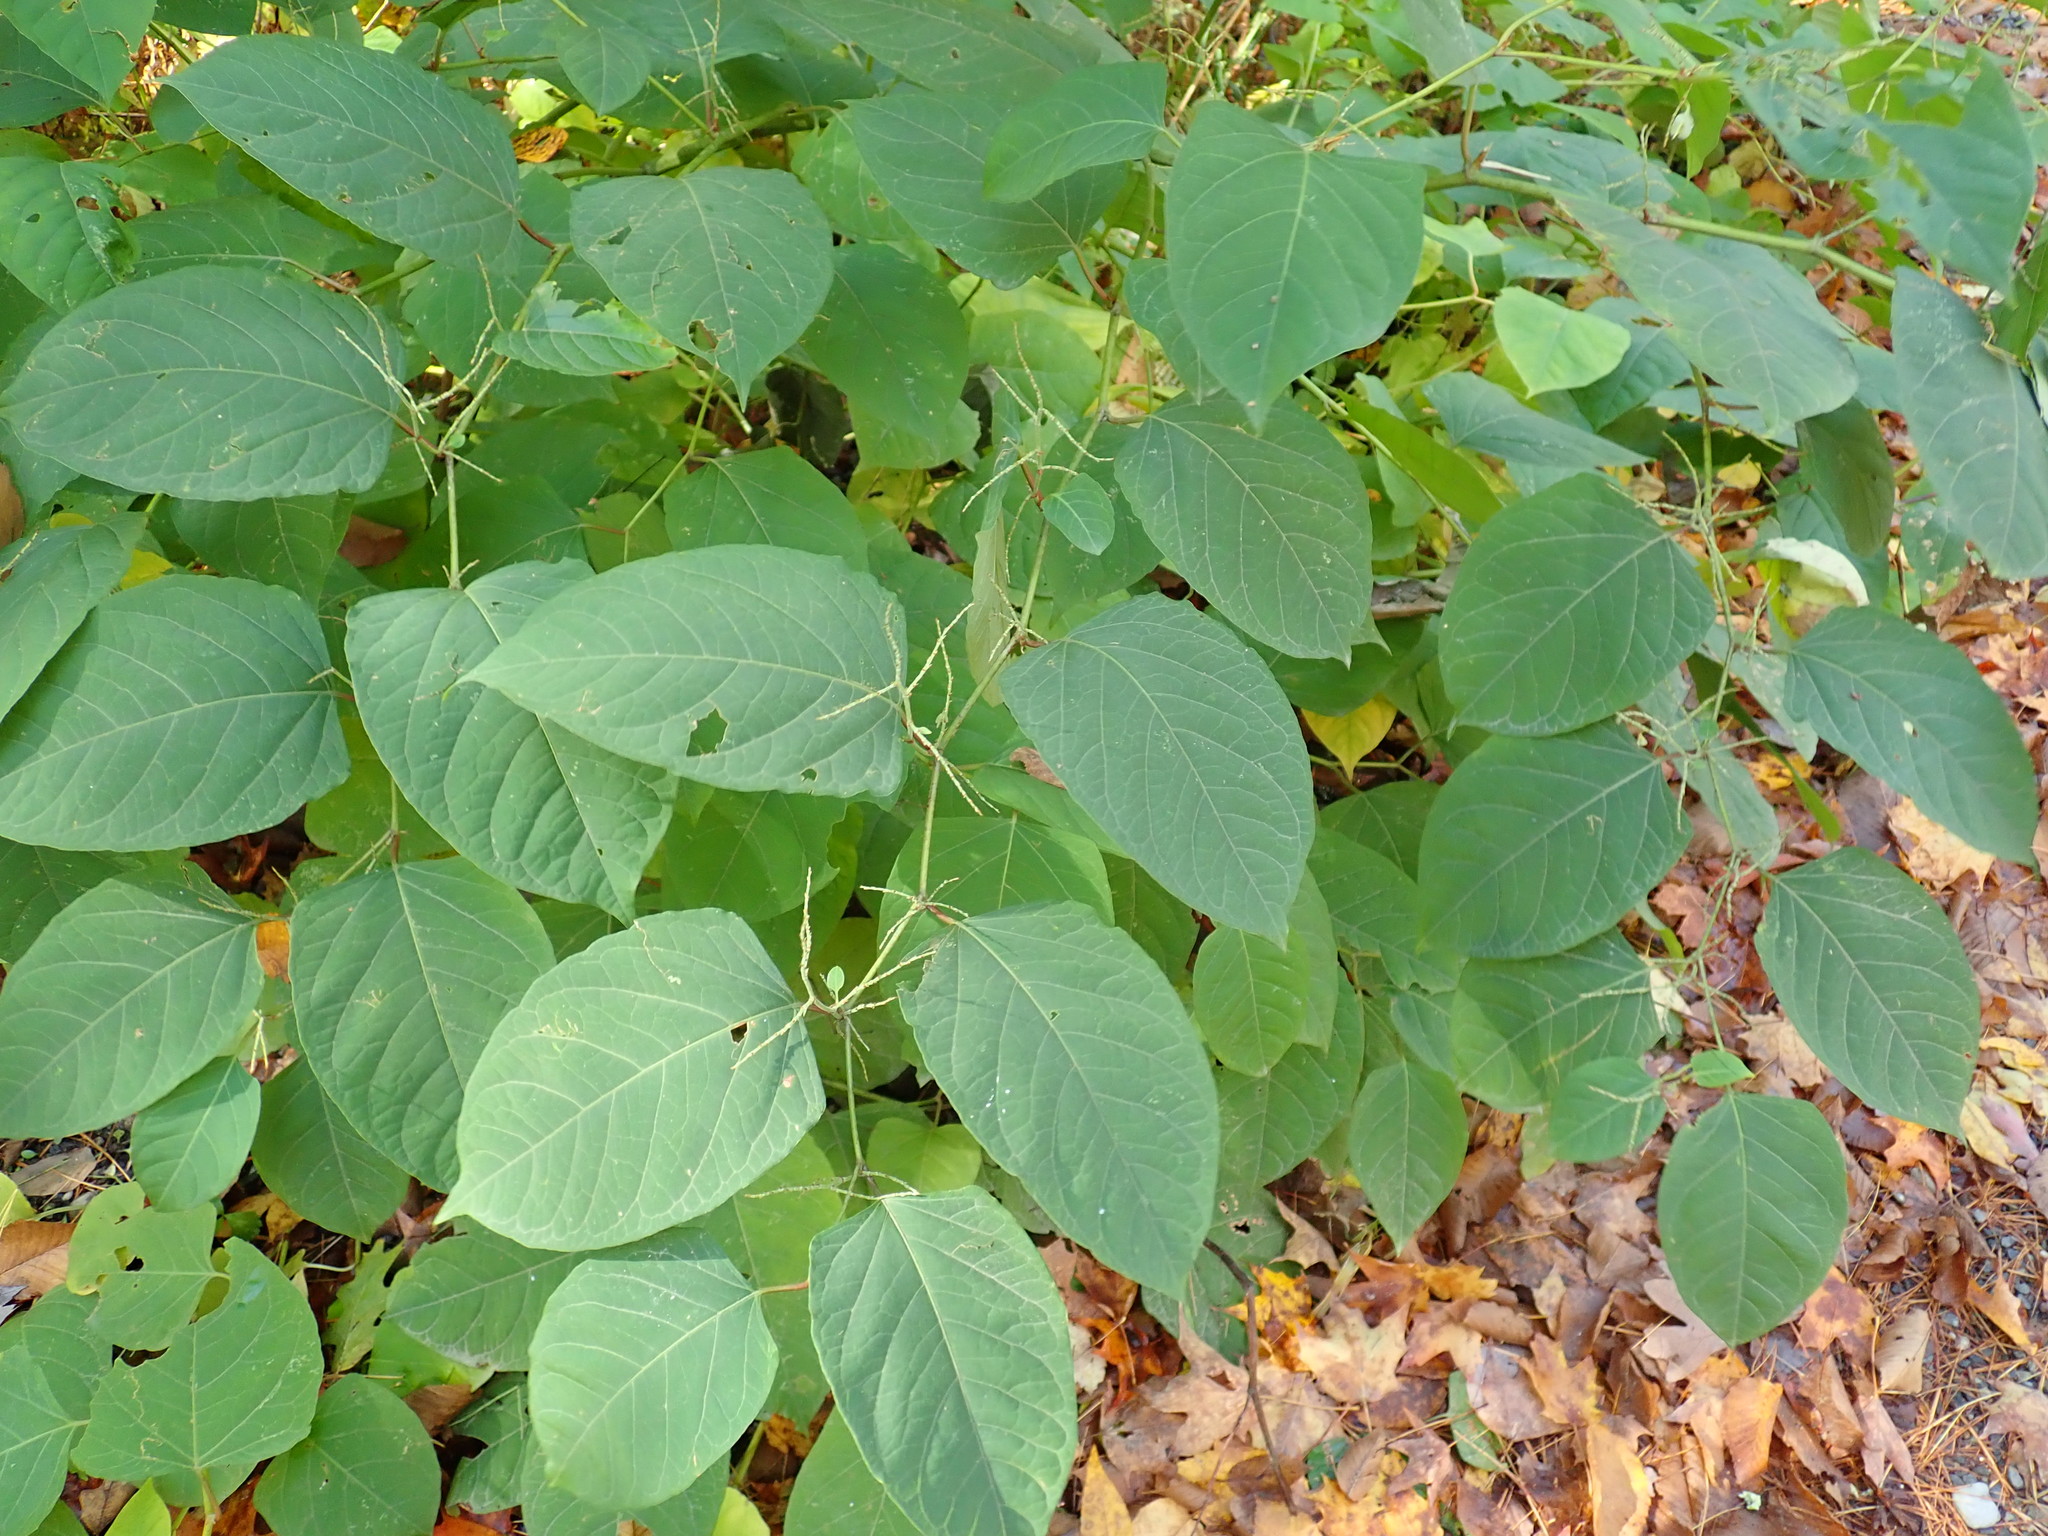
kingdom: Plantae
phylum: Tracheophyta
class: Magnoliopsida
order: Caryophyllales
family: Polygonaceae
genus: Reynoutria
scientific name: Reynoutria japonica
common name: Japanese knotweed
